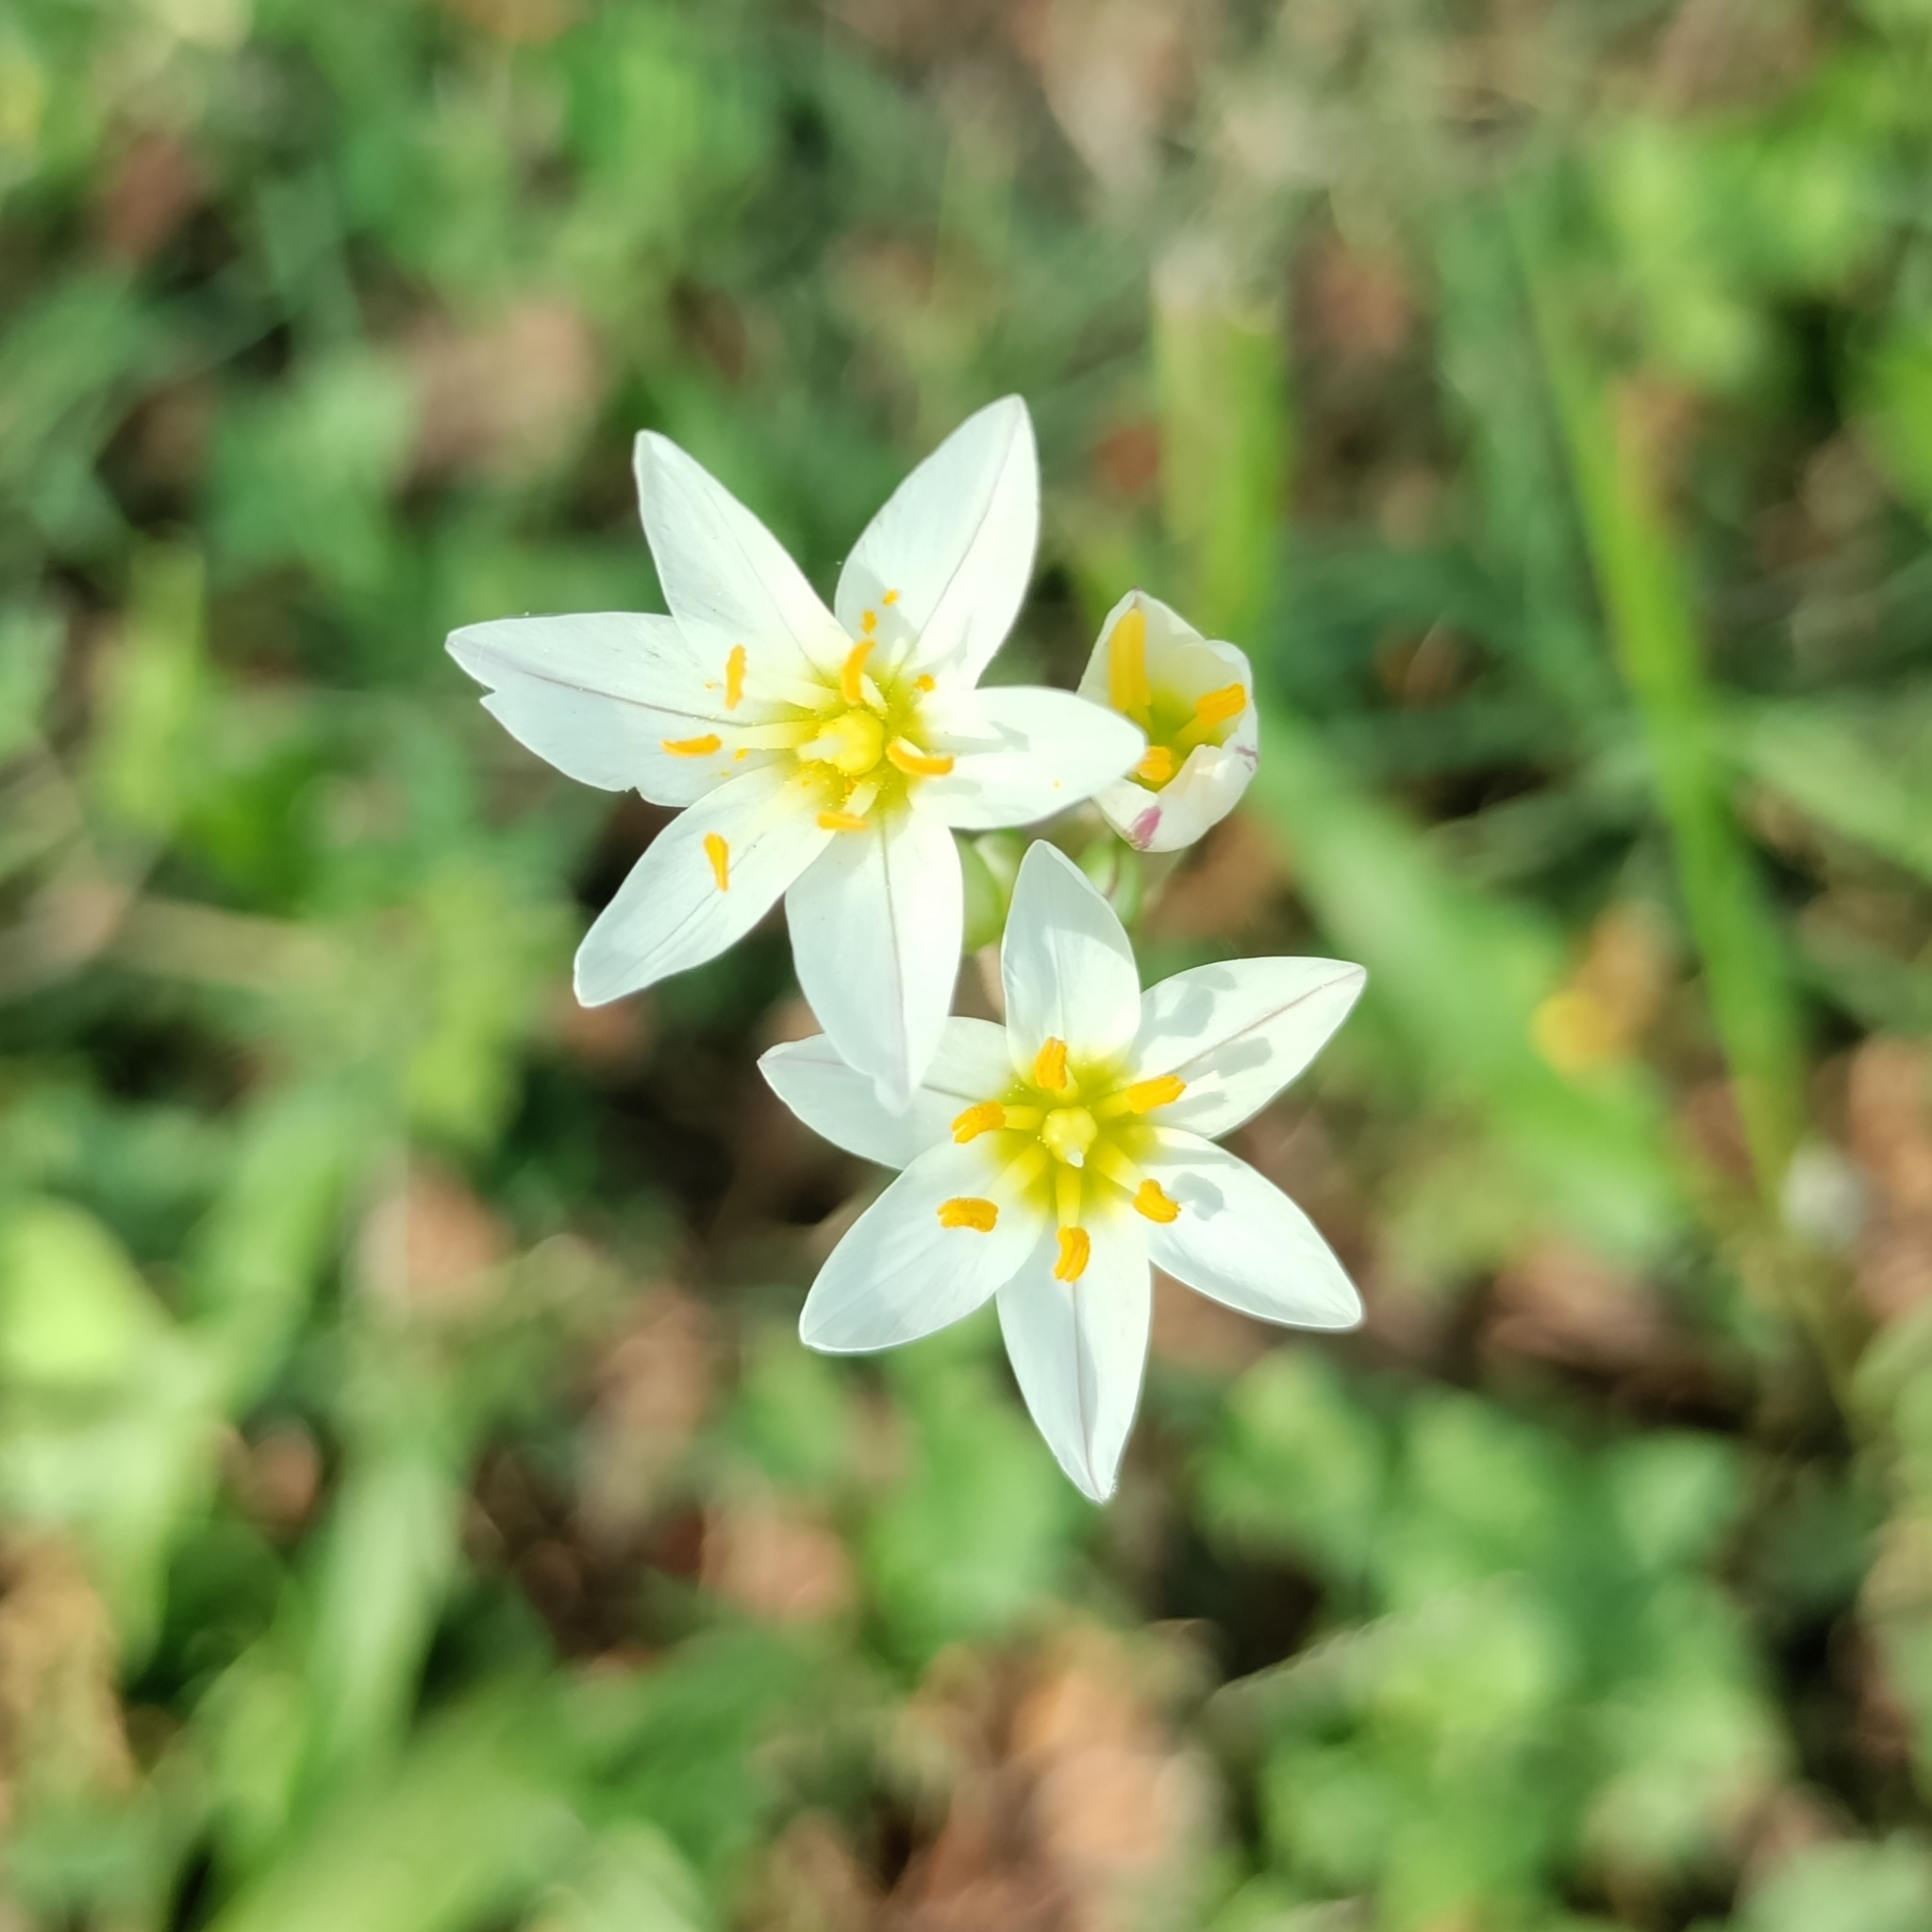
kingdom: Plantae
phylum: Tracheophyta
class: Liliopsida
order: Asparagales
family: Amaryllidaceae
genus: Nothoscordum
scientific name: Nothoscordum bivalve
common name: Crow-poison
